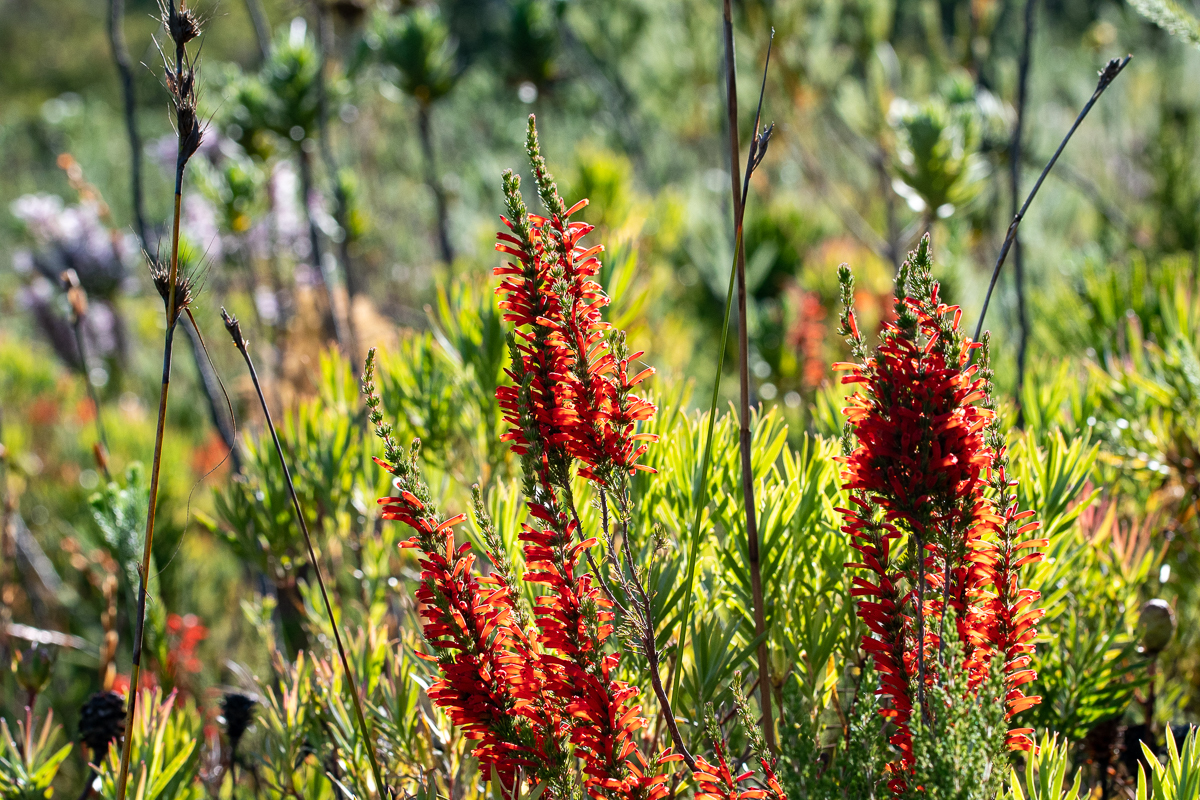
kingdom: Plantae
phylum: Tracheophyta
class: Magnoliopsida
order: Ericales
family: Ericaceae
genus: Erica
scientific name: Erica pillansii
